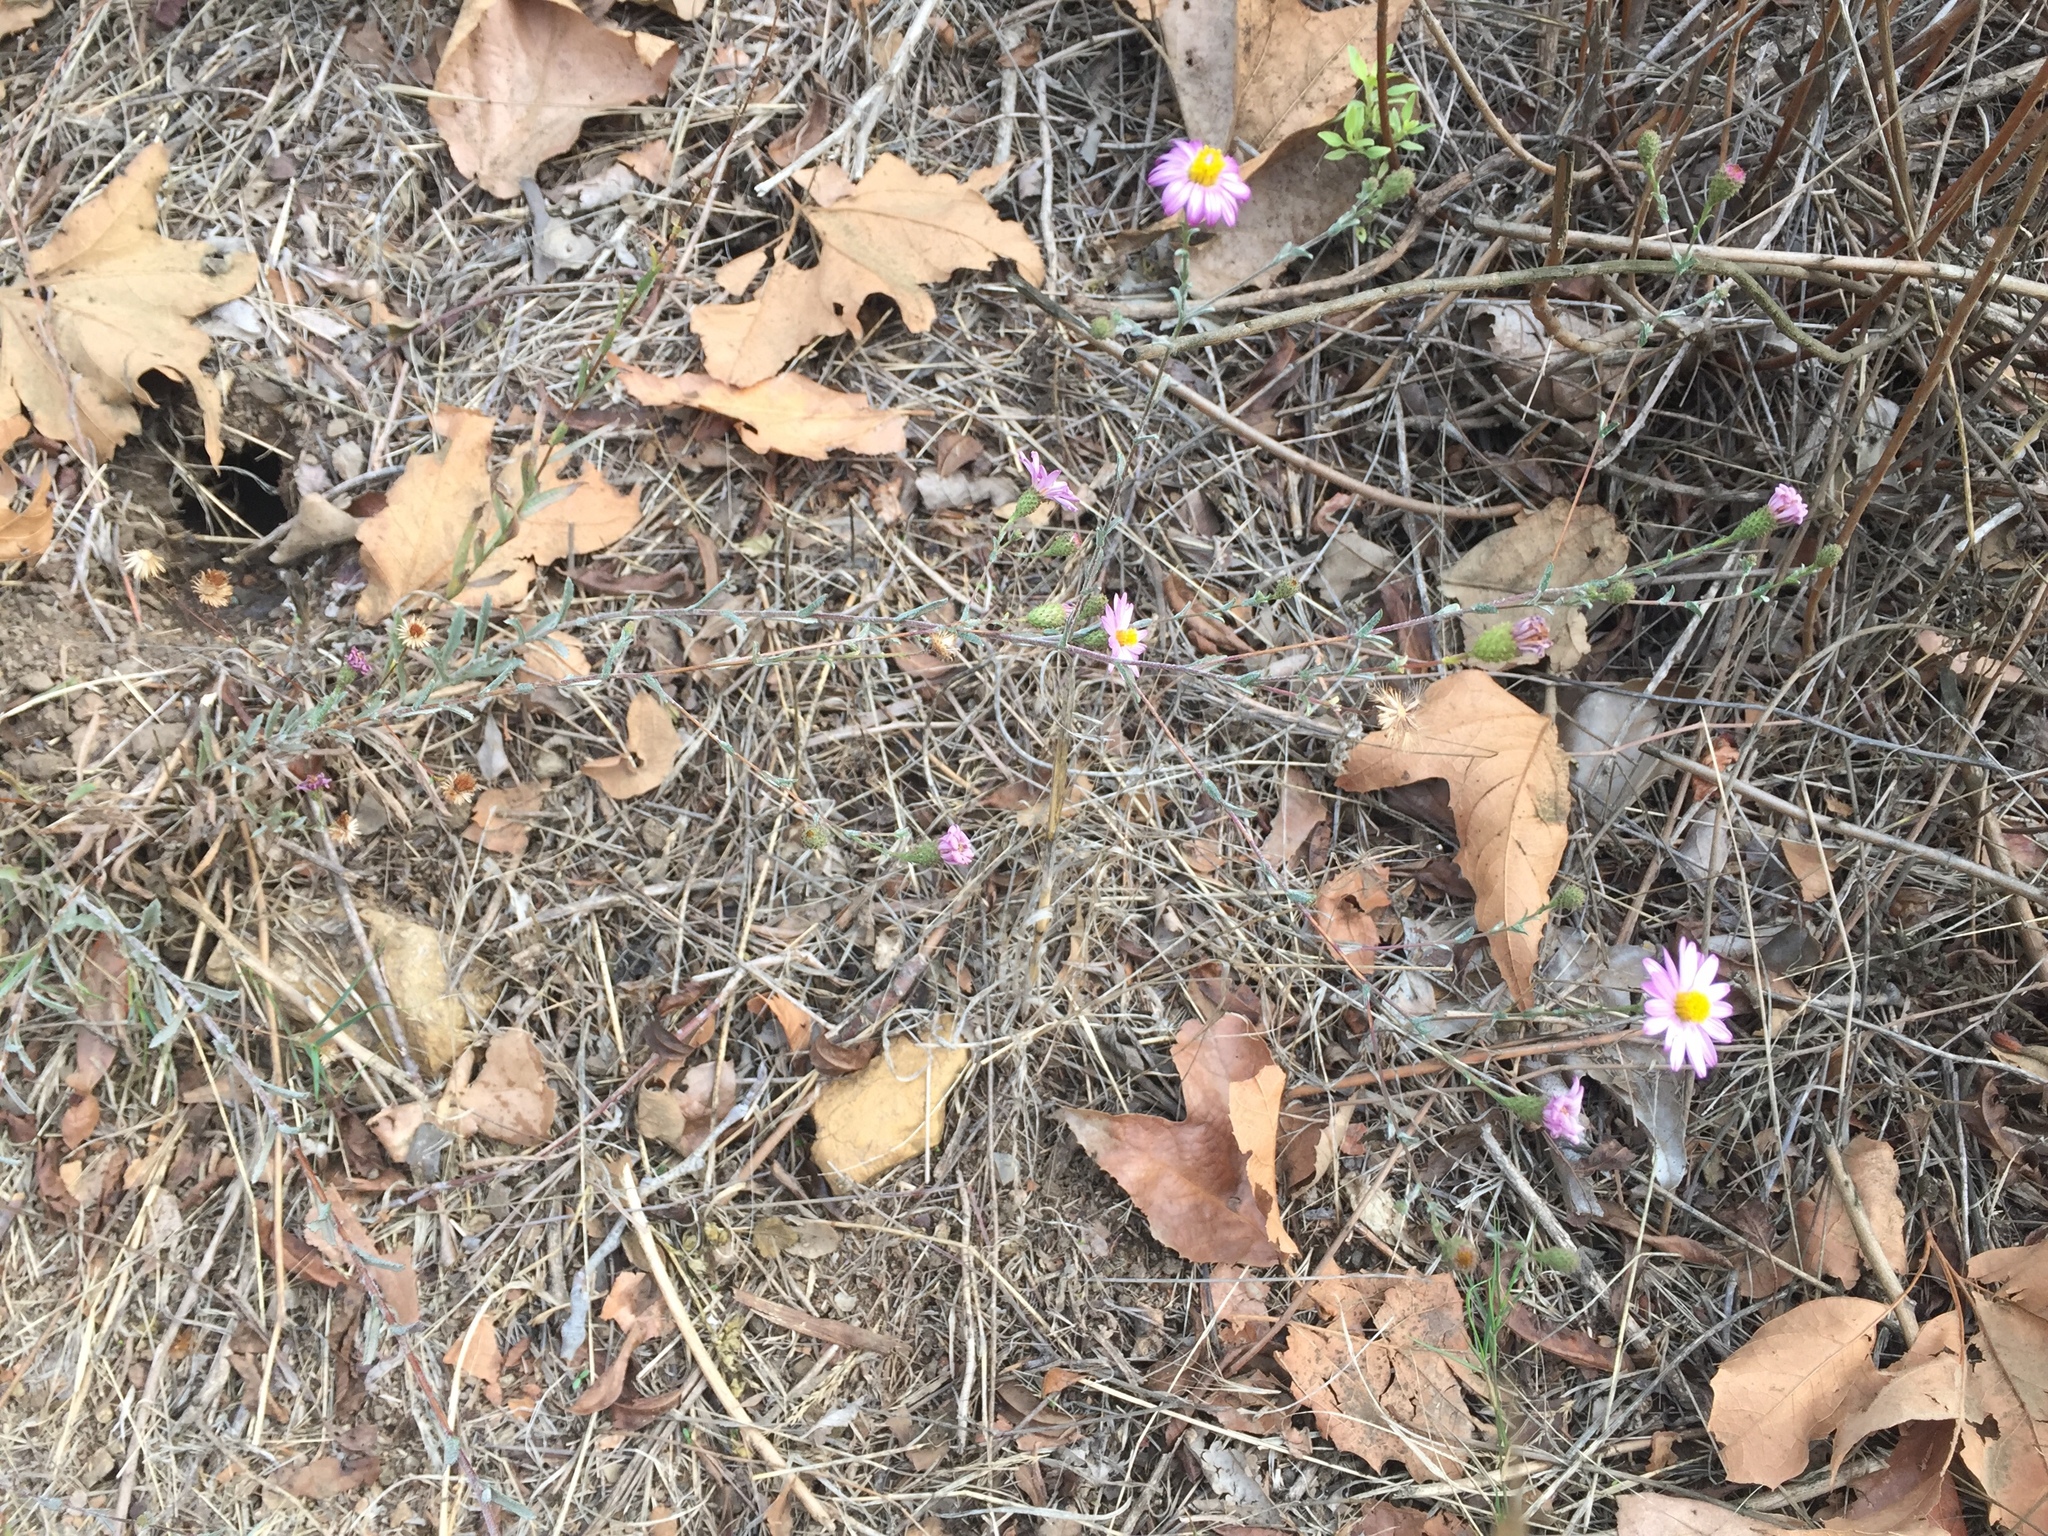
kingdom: Plantae
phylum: Tracheophyta
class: Magnoliopsida
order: Asterales
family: Asteraceae
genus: Corethrogyne
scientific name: Corethrogyne filaginifolia
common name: Sand-aster
